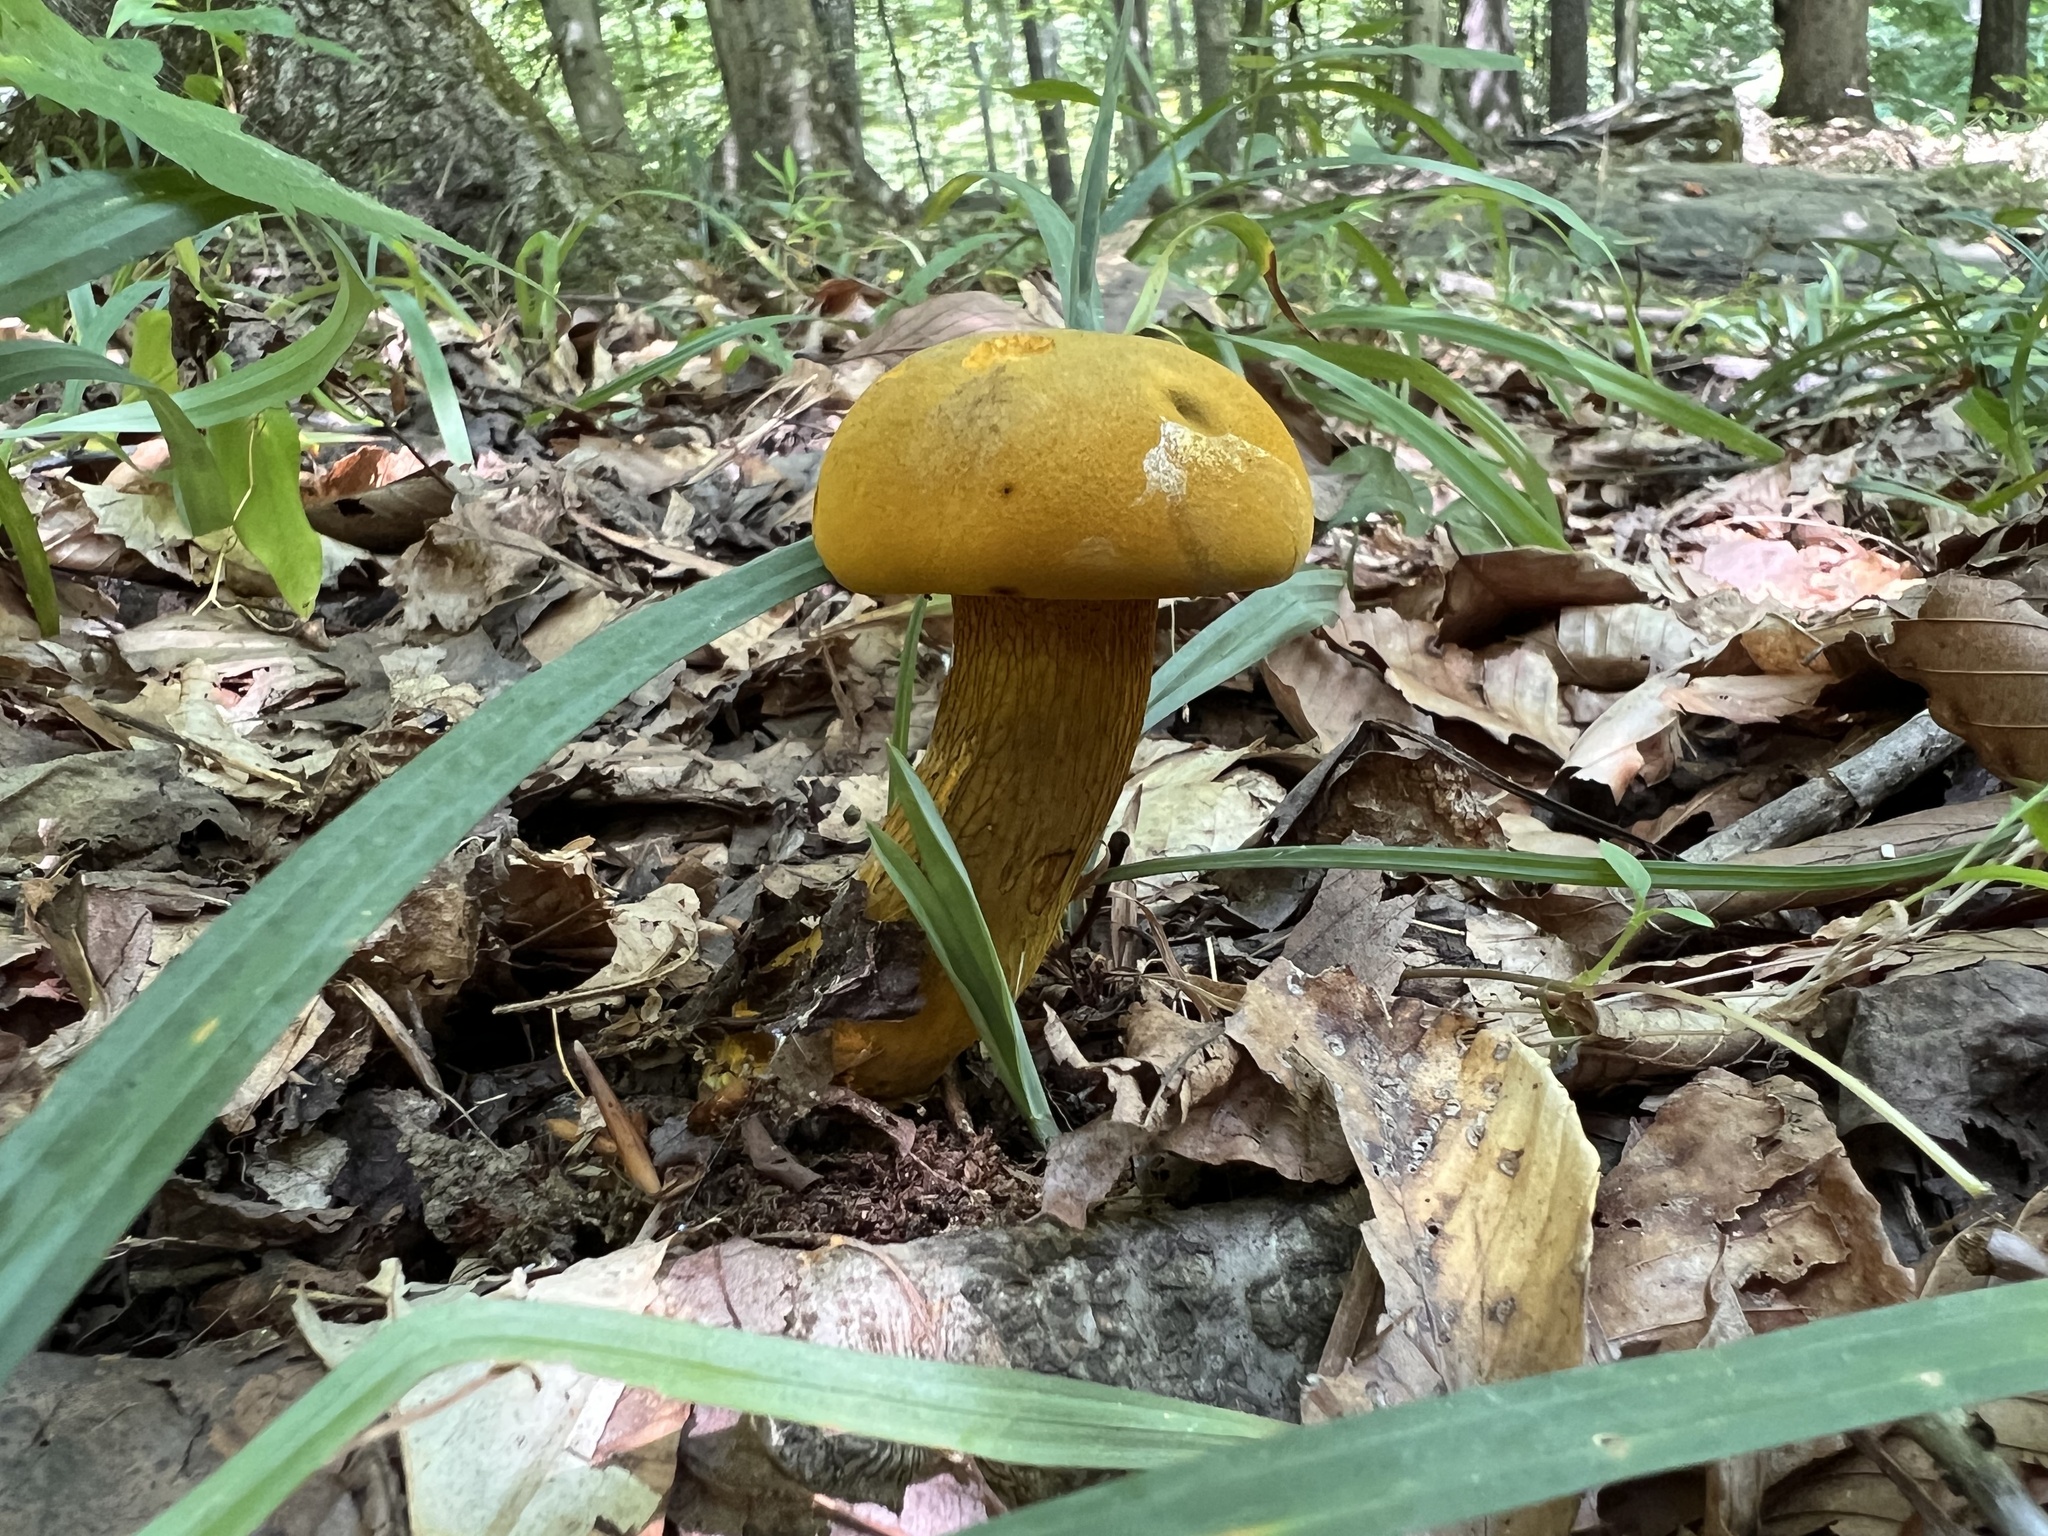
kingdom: Fungi
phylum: Basidiomycota
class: Agaricomycetes
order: Boletales
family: Boletaceae
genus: Retiboletus
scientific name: Retiboletus ornatipes
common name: Ornate-stalked bolete
